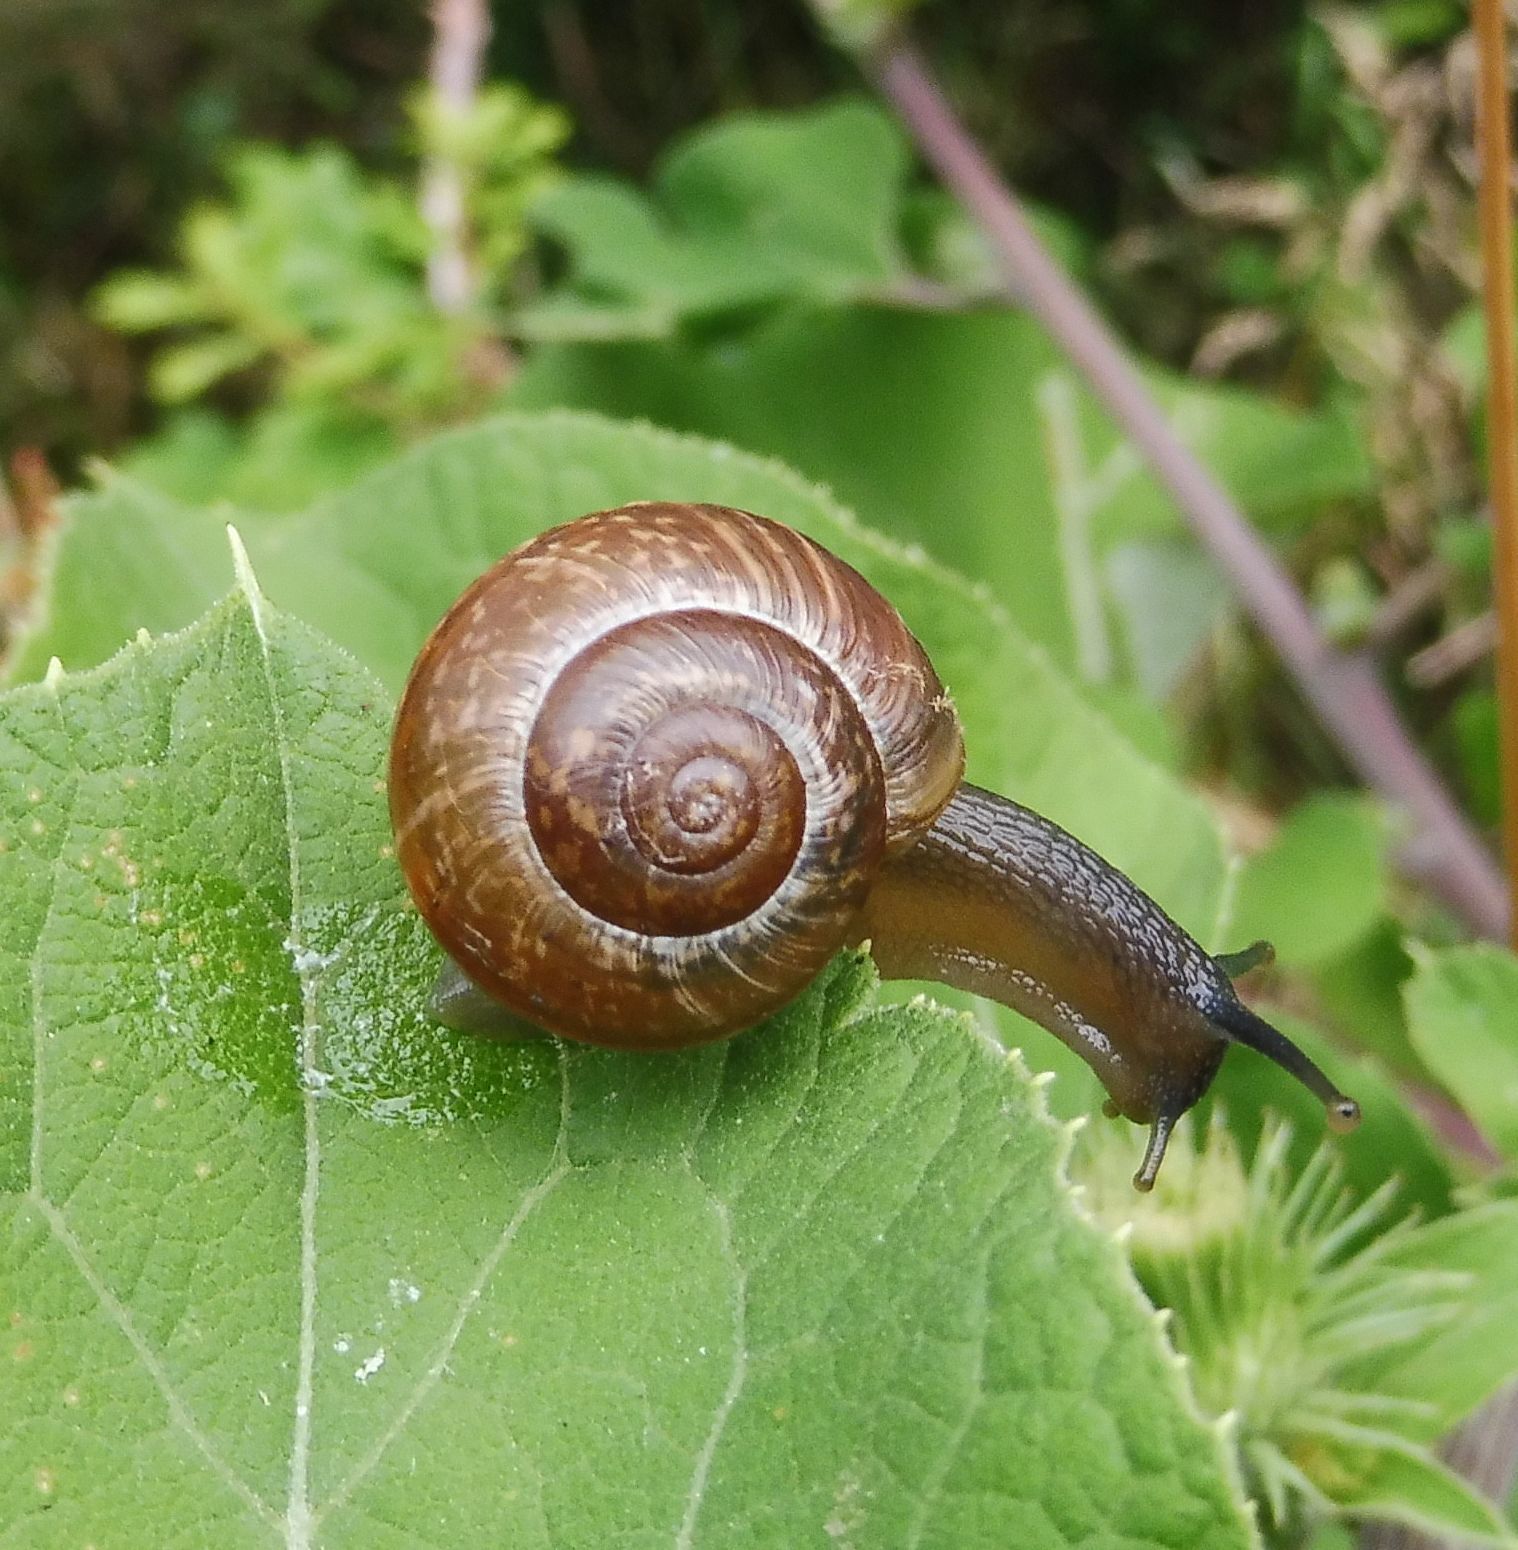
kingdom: Animalia
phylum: Mollusca
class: Gastropoda
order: Stylommatophora
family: Helicidae
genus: Arianta
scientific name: Arianta arbustorum
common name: Copse snail
